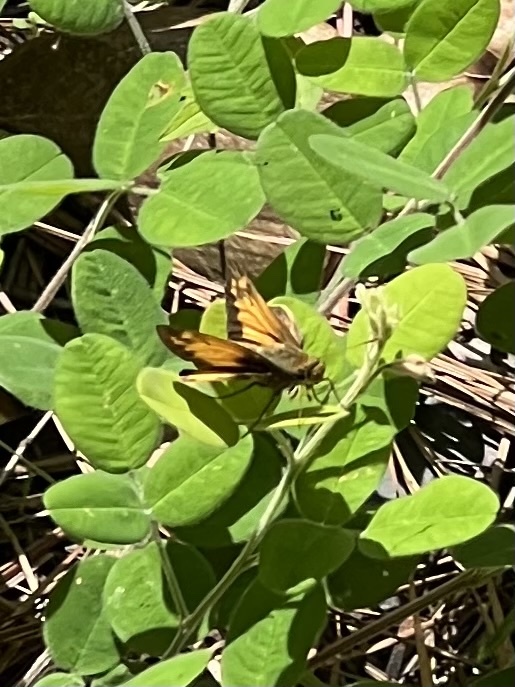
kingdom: Animalia
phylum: Arthropoda
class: Insecta
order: Lepidoptera
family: Hesperiidae
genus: Lon
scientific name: Lon zabulon
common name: Zabulon skipper
